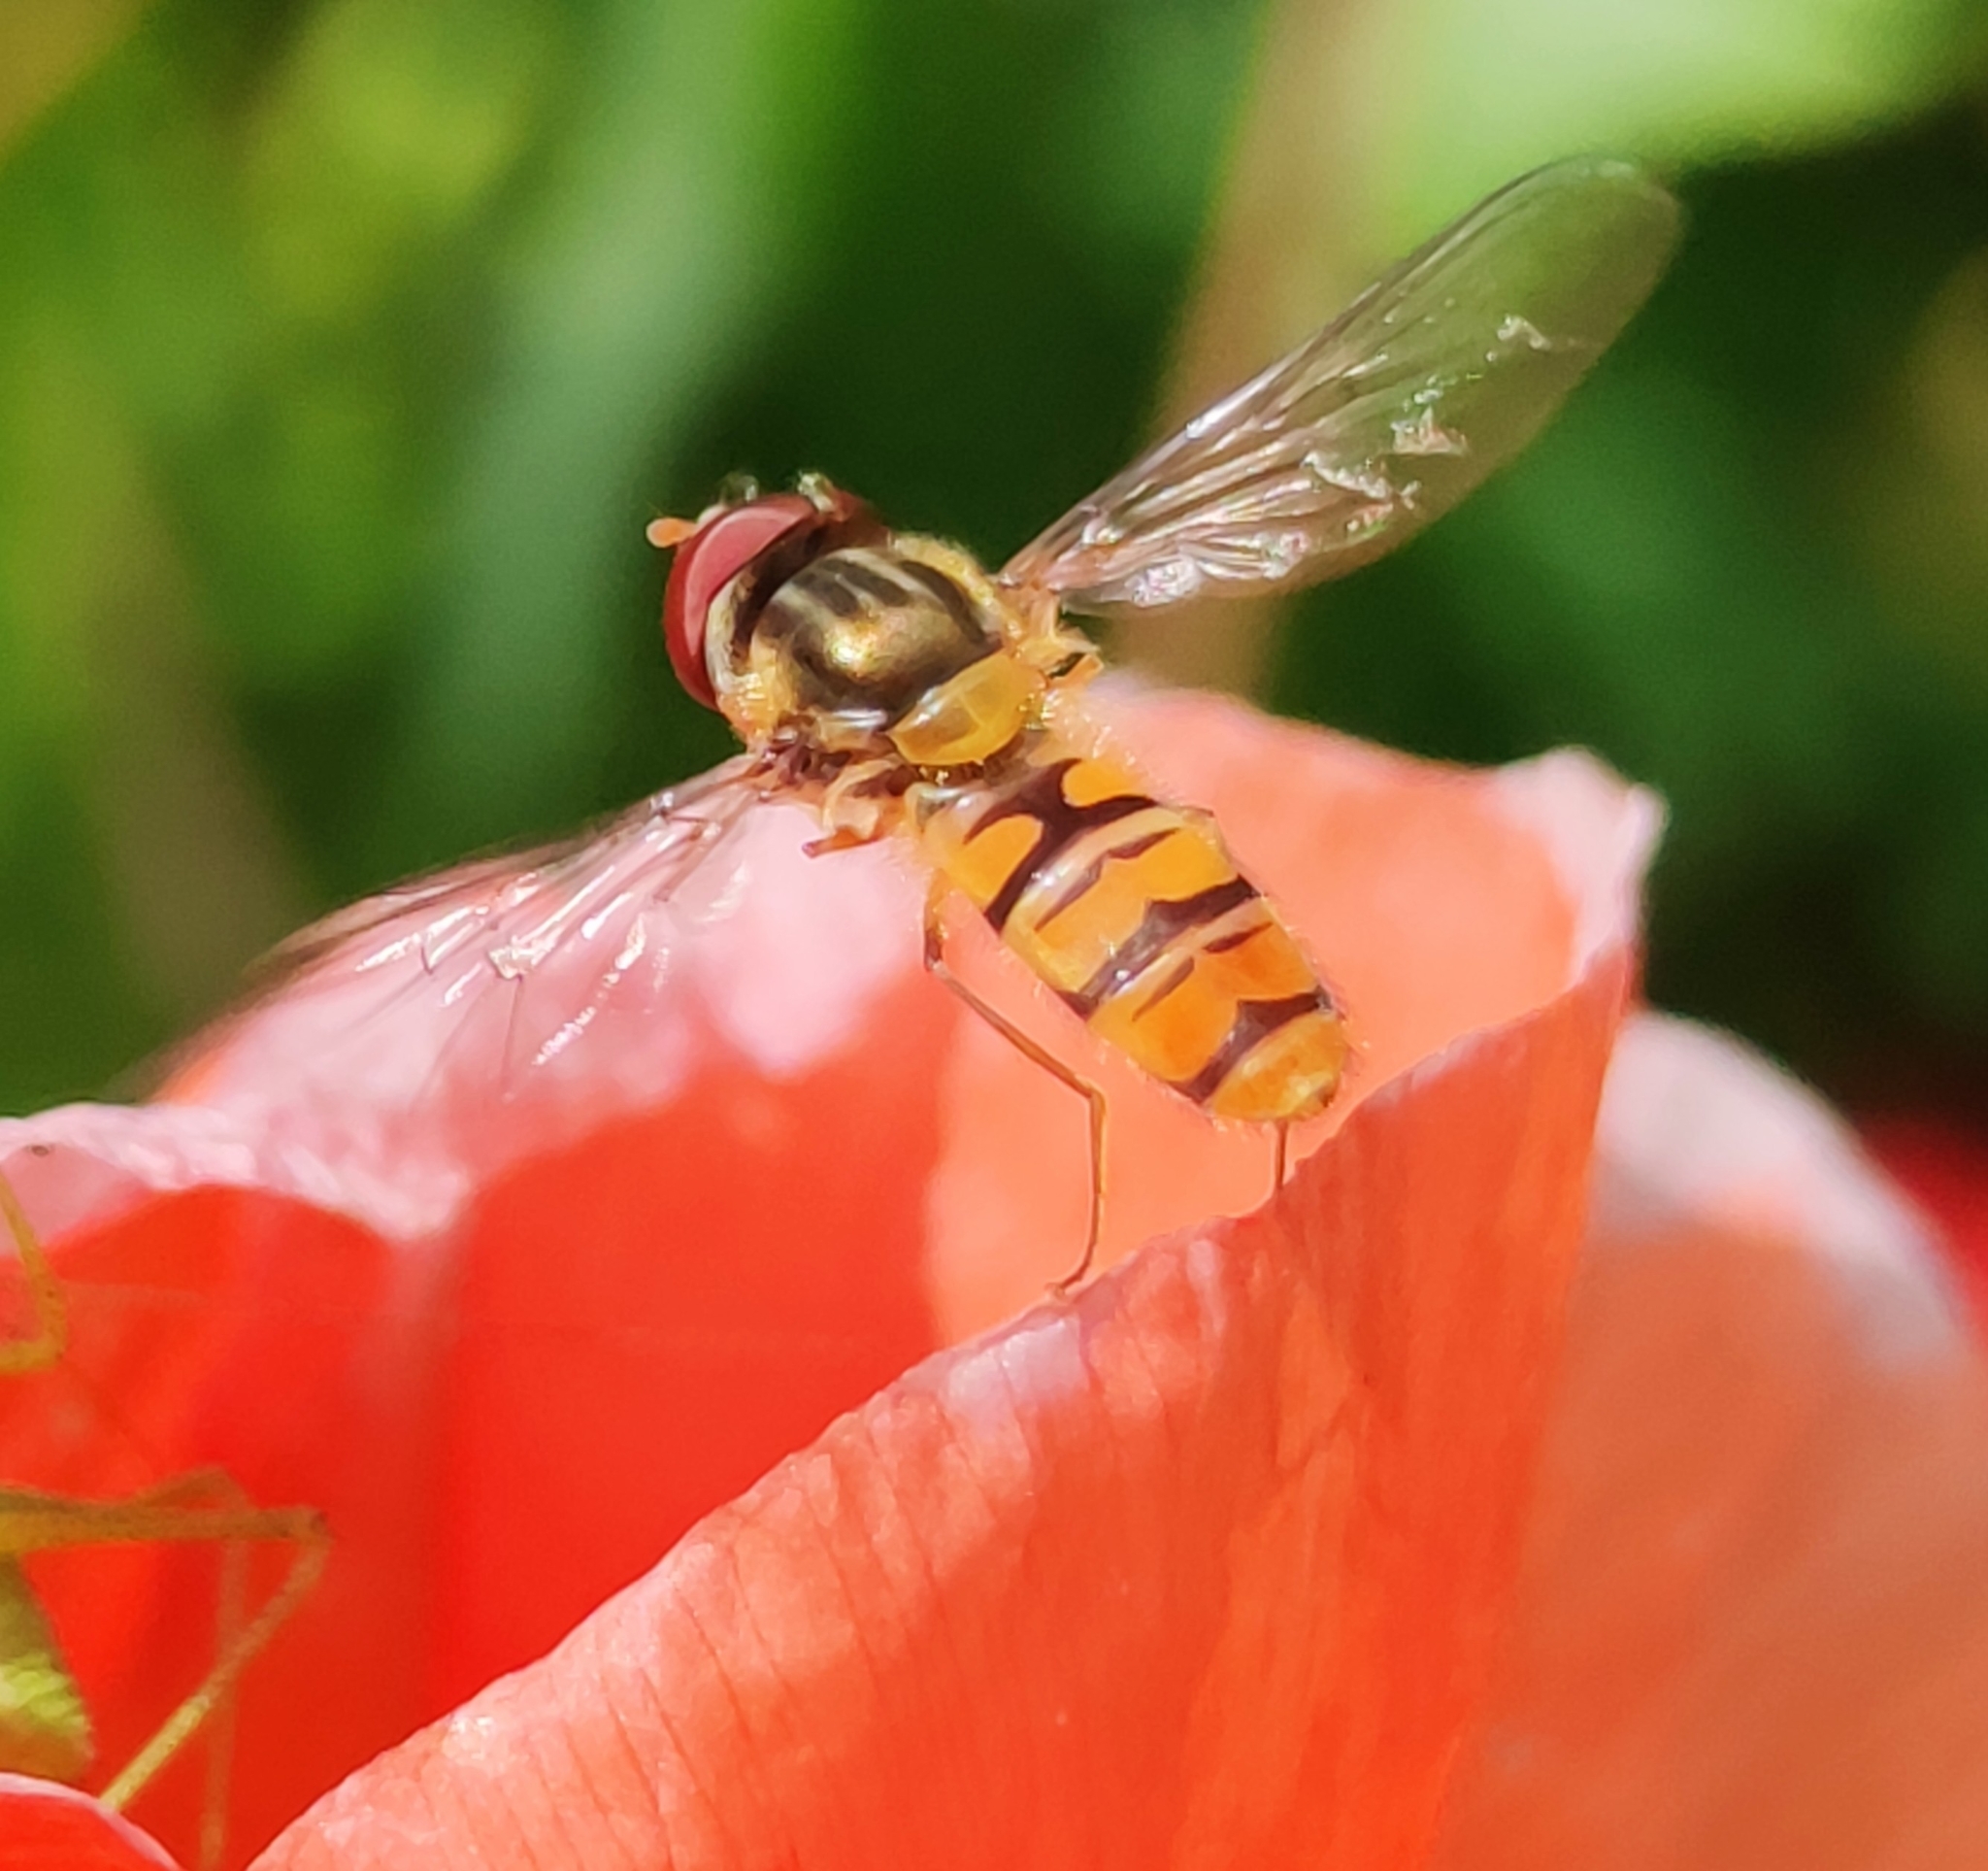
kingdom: Animalia
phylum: Arthropoda
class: Insecta
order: Diptera
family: Syrphidae
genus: Episyrphus
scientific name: Episyrphus balteatus
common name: Marmalade hoverfly
